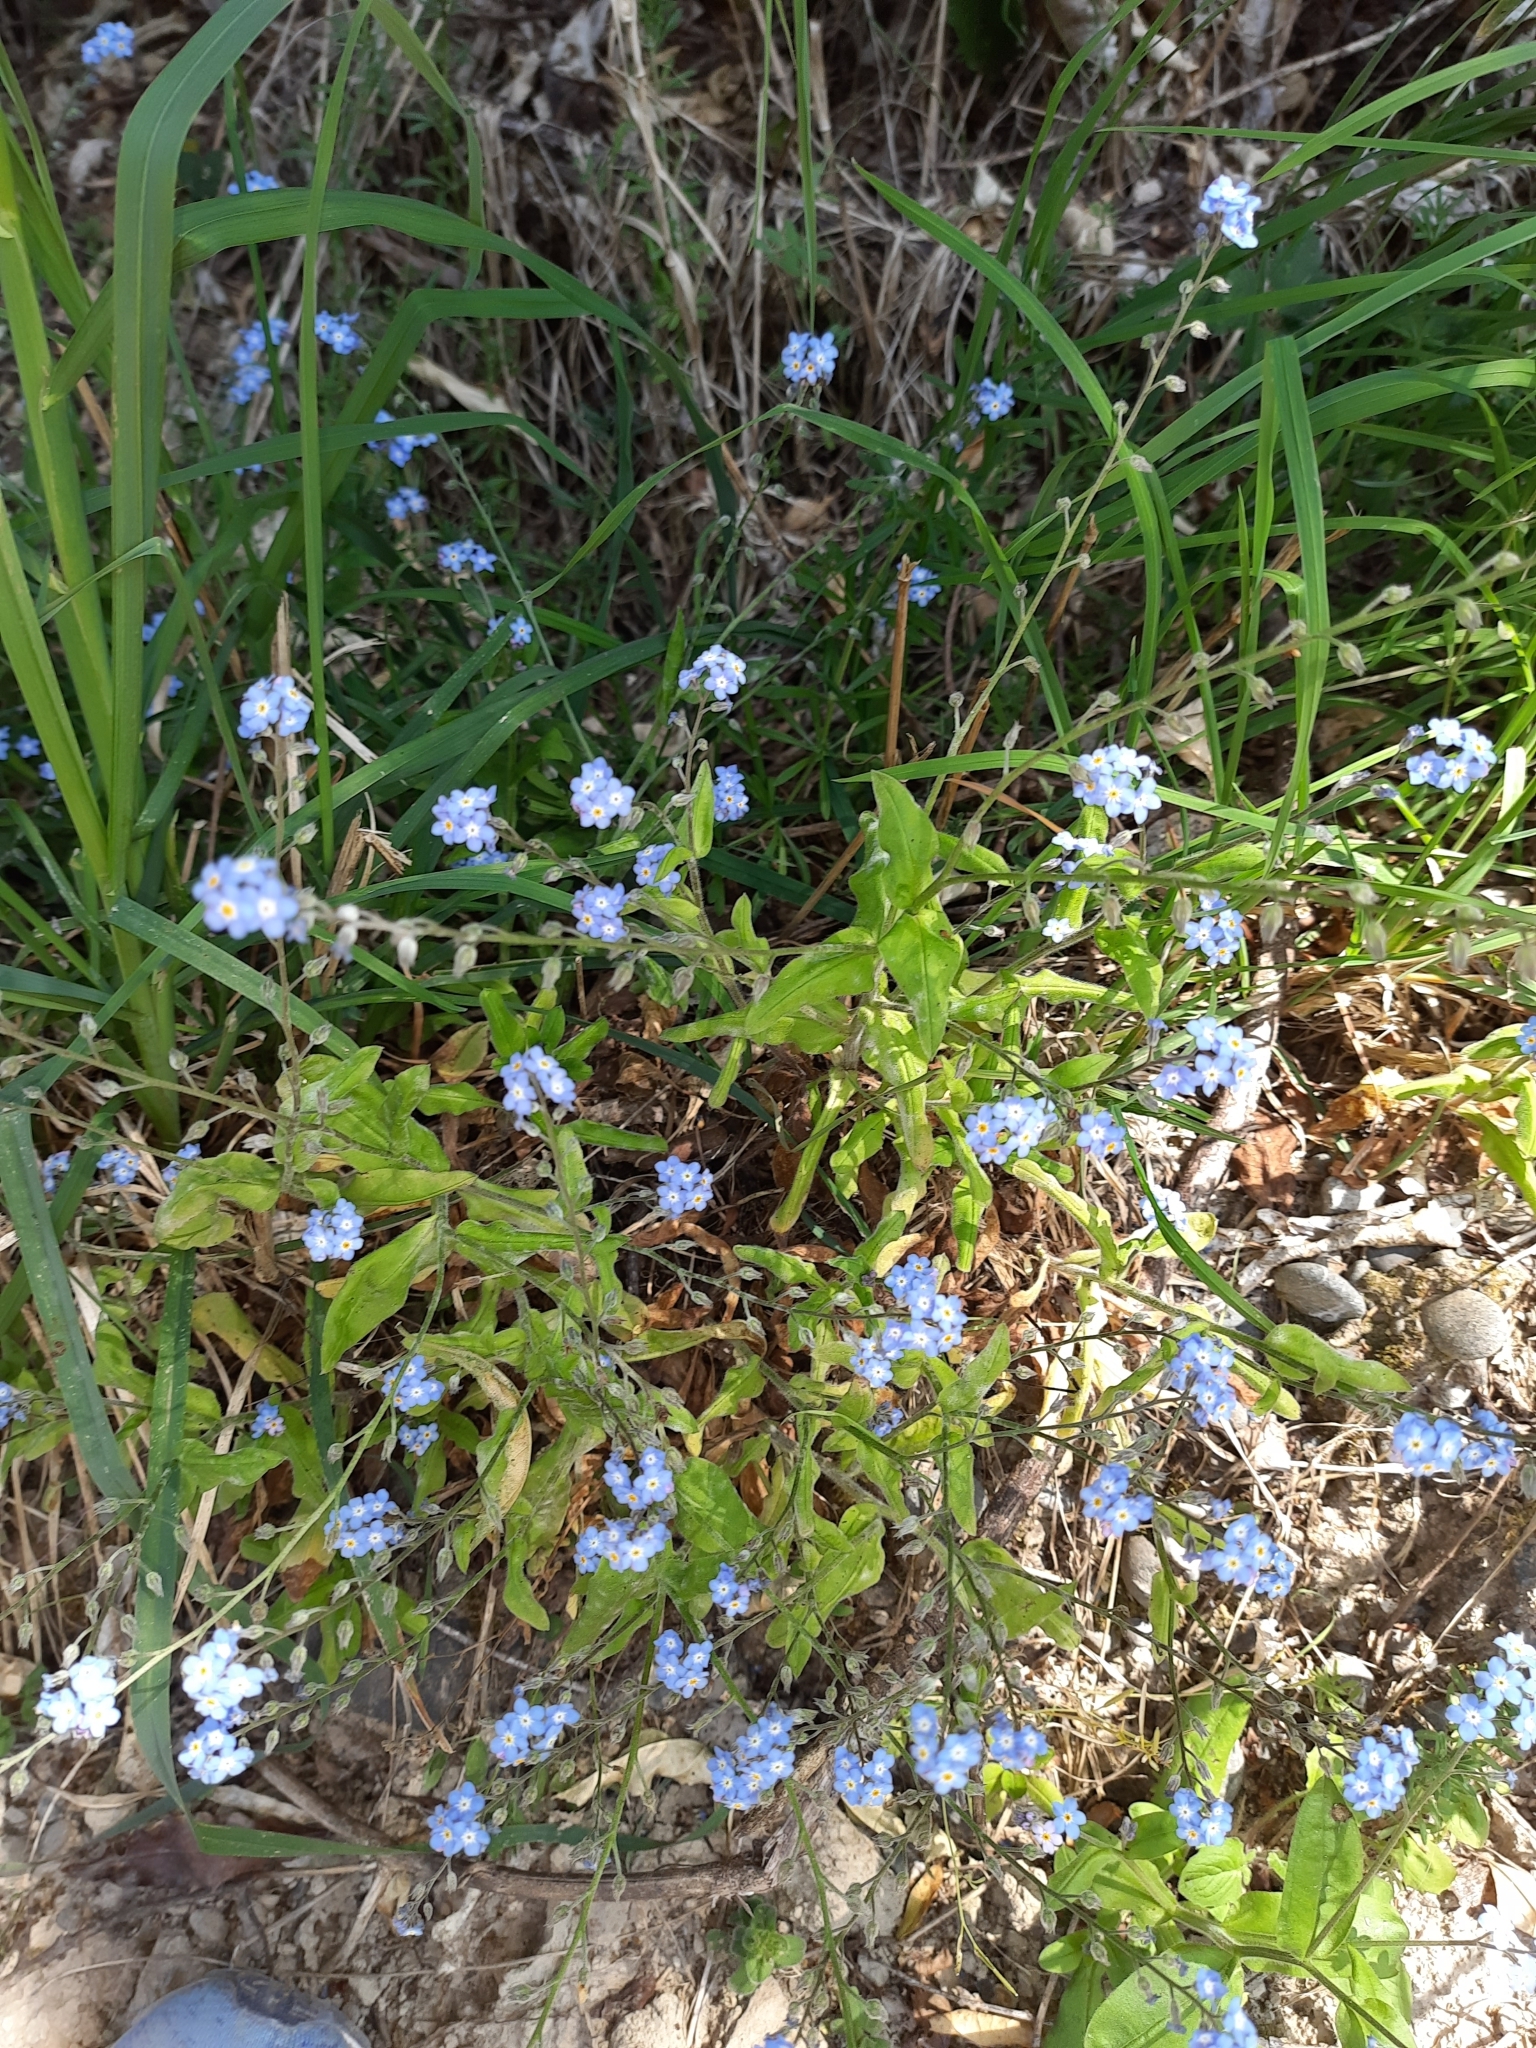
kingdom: Plantae
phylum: Tracheophyta
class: Magnoliopsida
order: Boraginales
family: Boraginaceae
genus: Myosotis
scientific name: Myosotis sylvatica
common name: Wood forget-me-not
